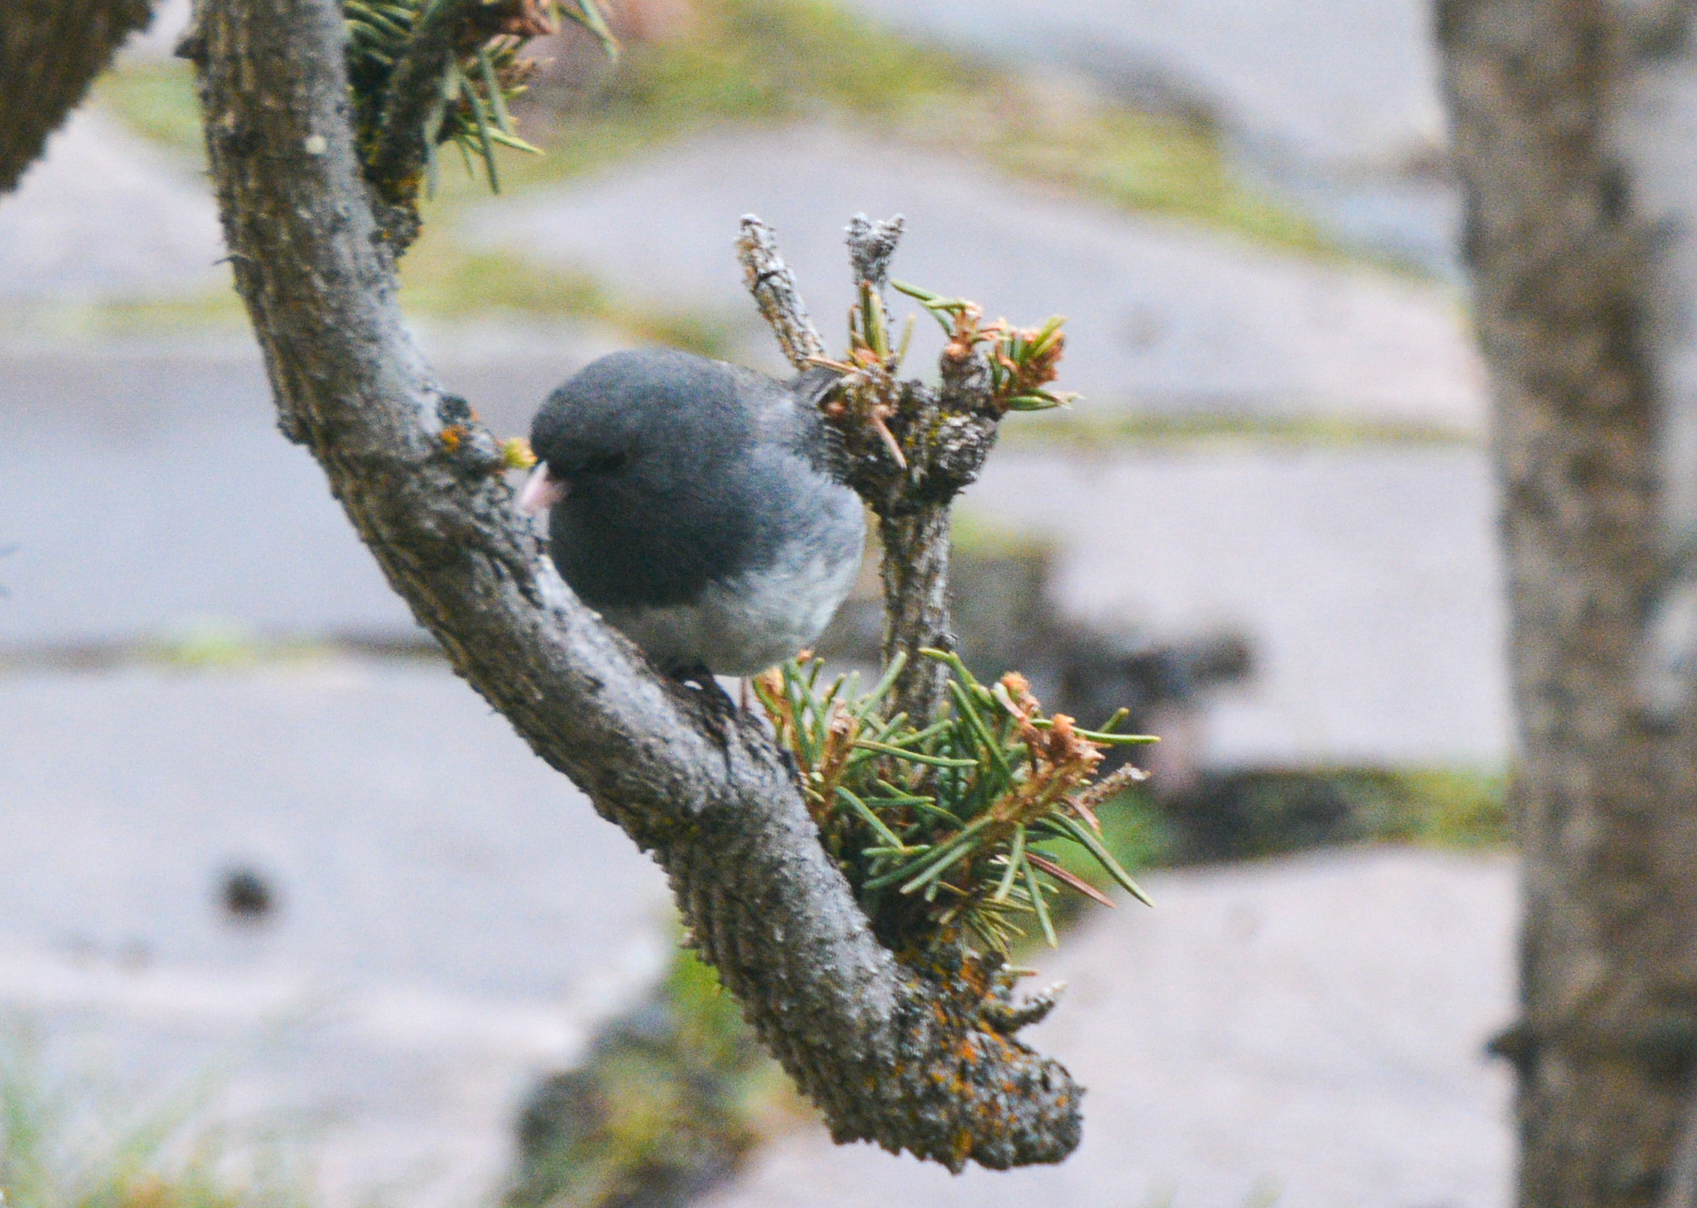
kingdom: Animalia
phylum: Chordata
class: Aves
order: Passeriformes
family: Passerellidae
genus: Junco
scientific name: Junco hyemalis
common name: Dark-eyed junco
